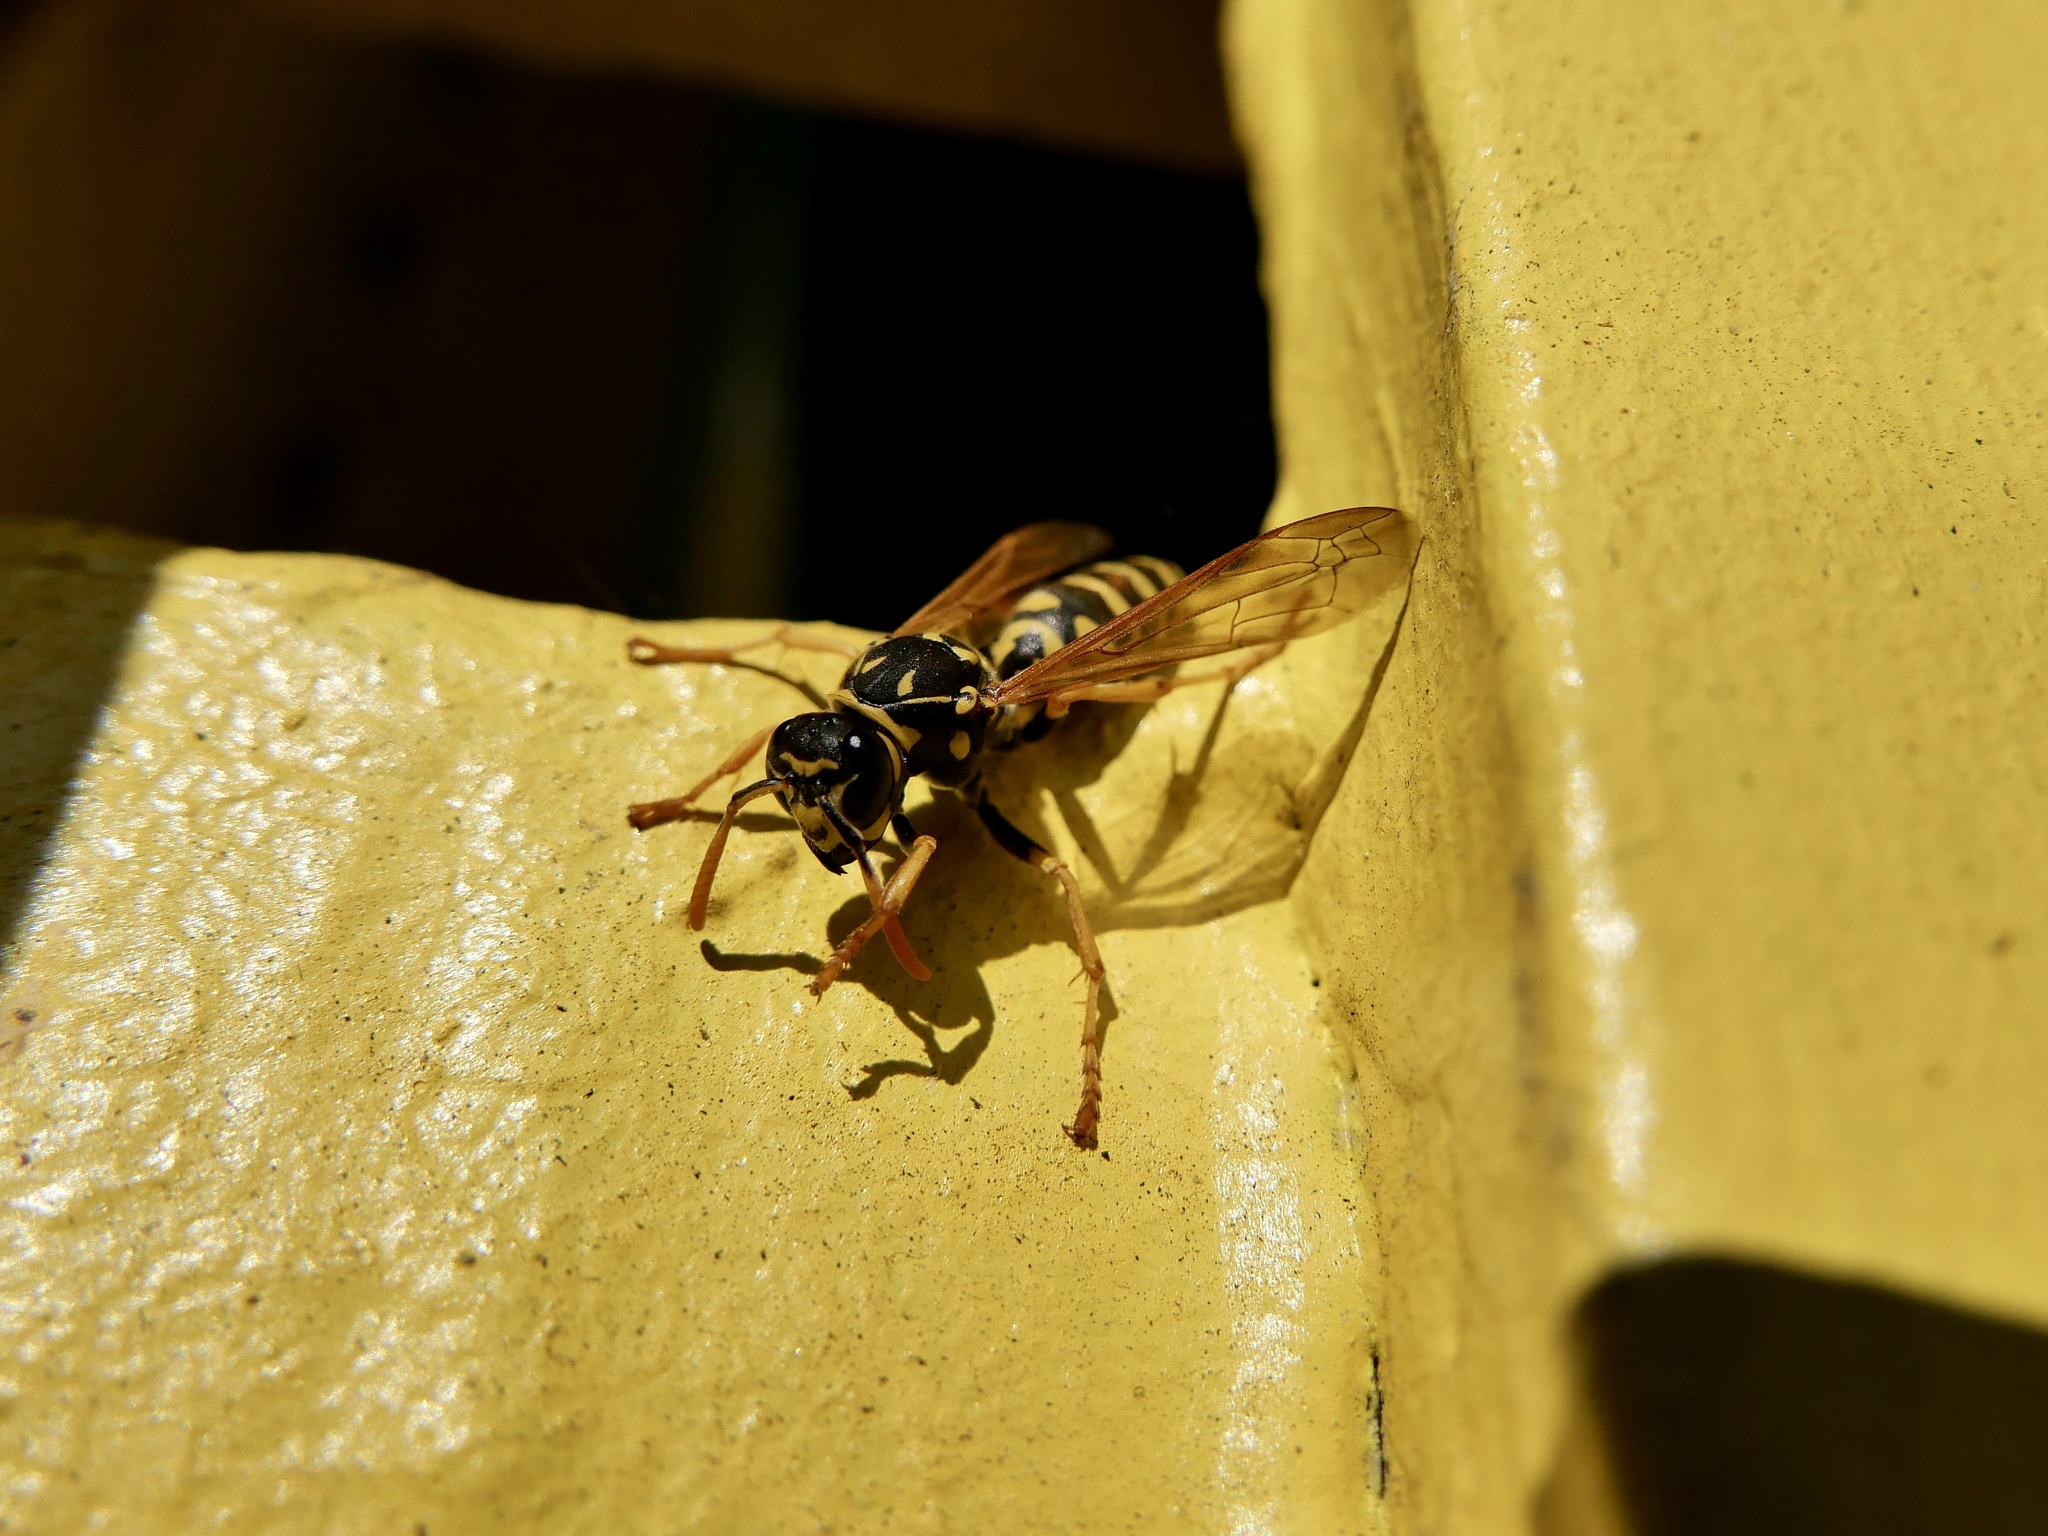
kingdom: Animalia
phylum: Arthropoda
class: Insecta
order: Hymenoptera
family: Eumenidae
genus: Polistes
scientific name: Polistes dominula
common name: Paper wasp
